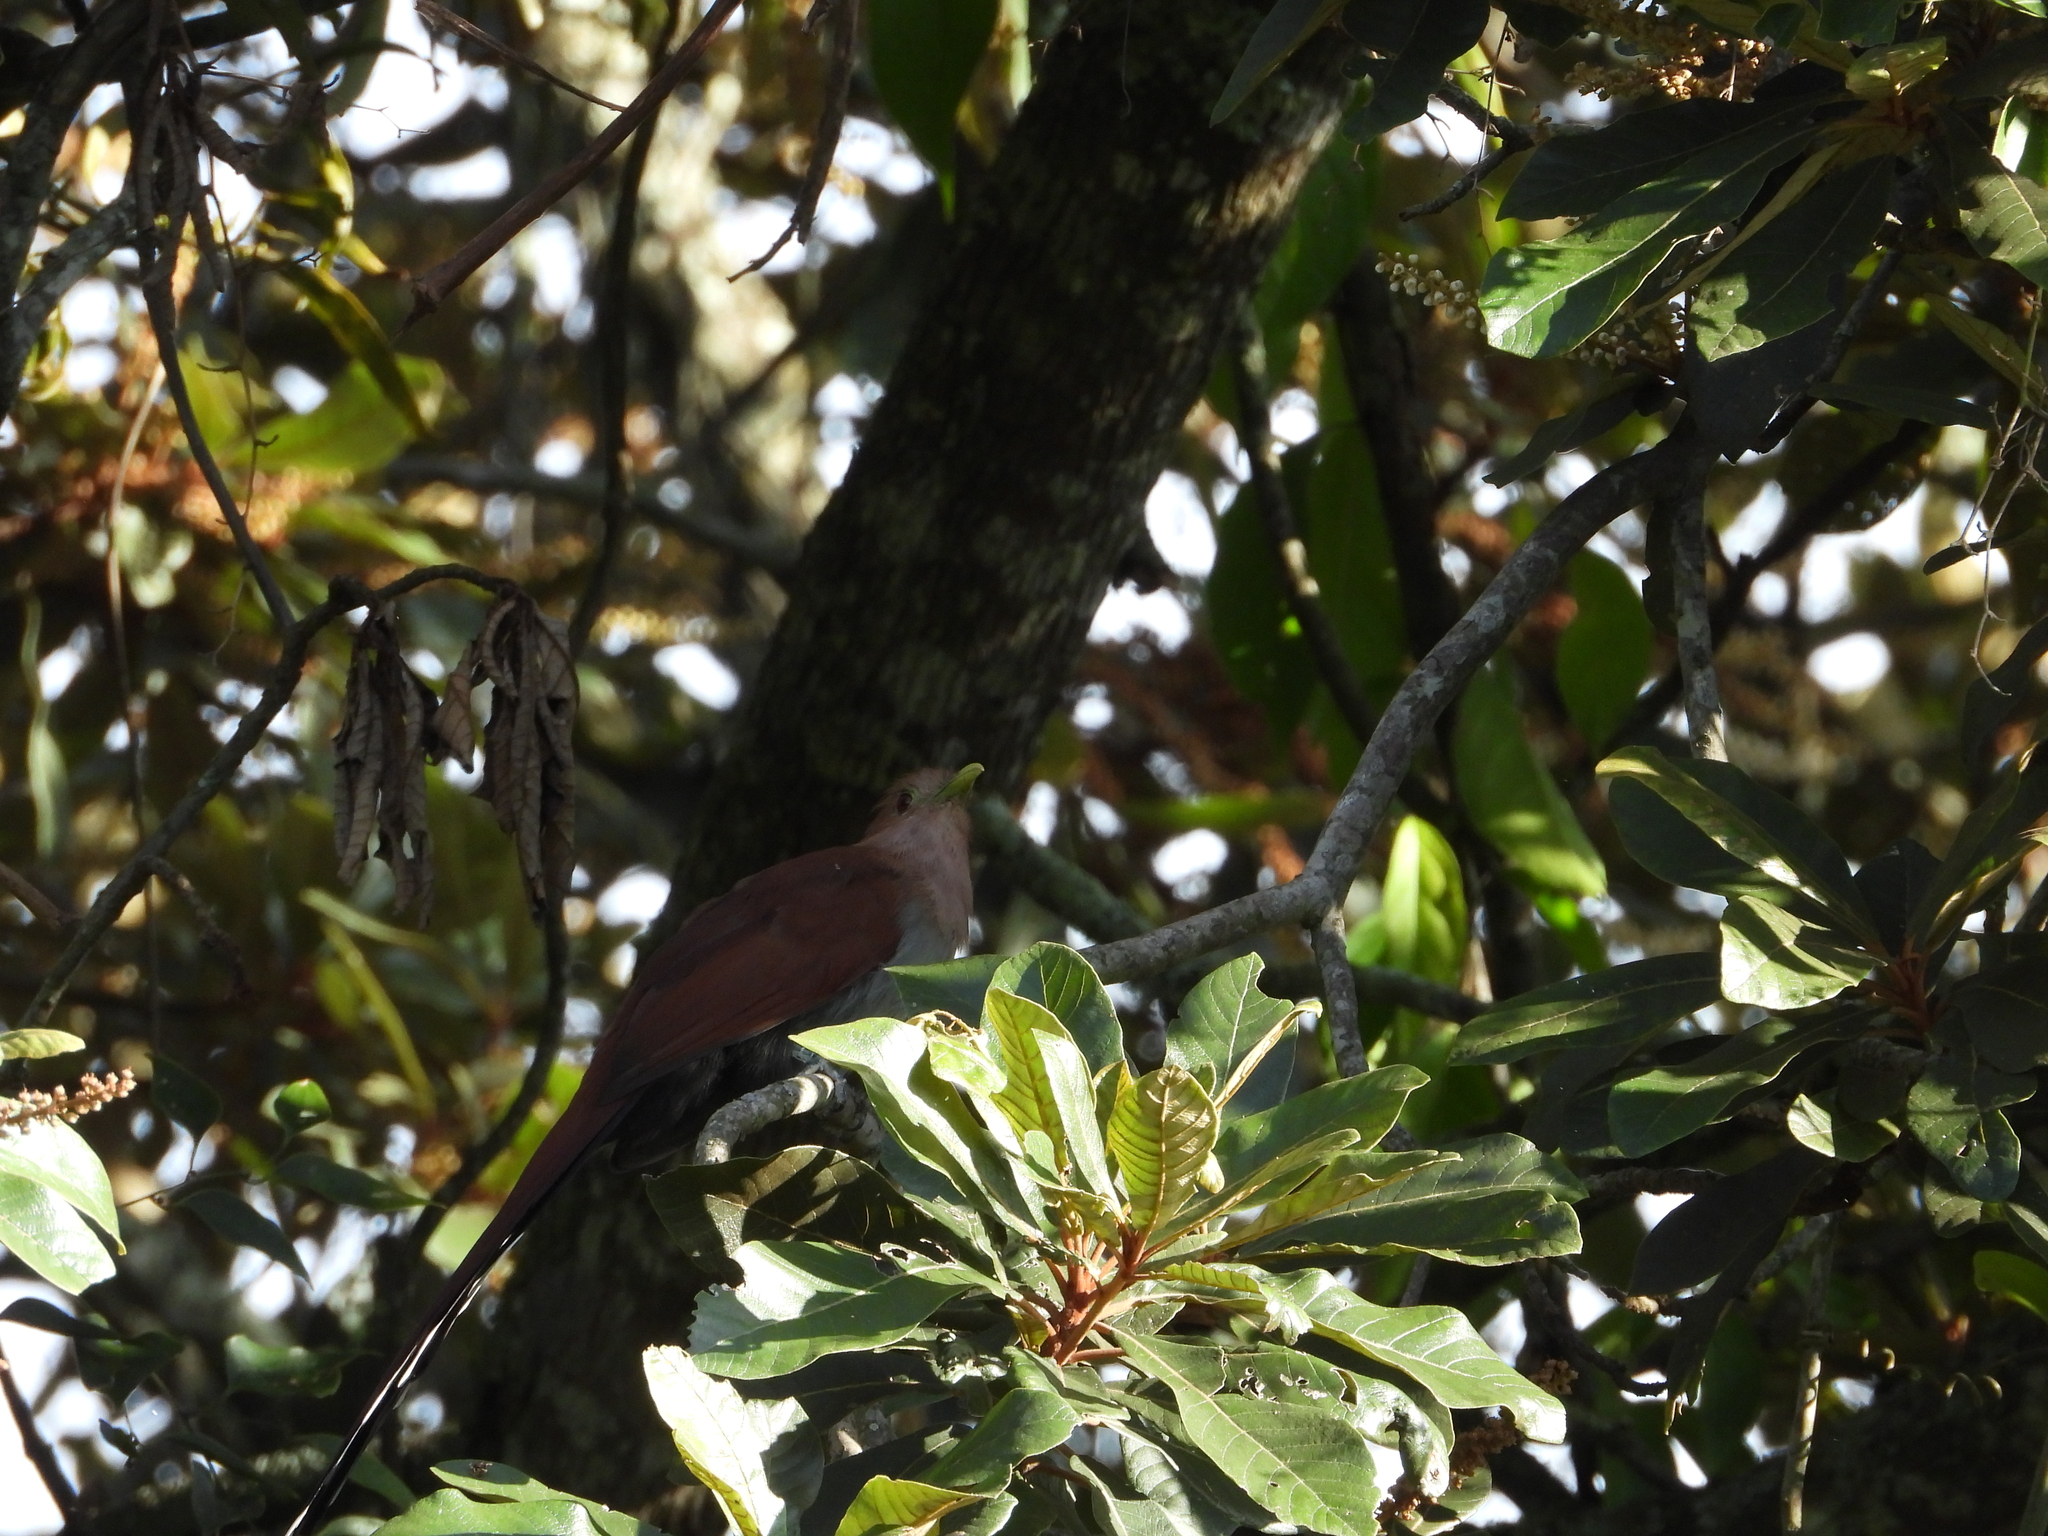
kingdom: Animalia
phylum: Chordata
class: Aves
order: Cuculiformes
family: Cuculidae
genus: Piaya
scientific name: Piaya cayana
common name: Squirrel cuckoo
